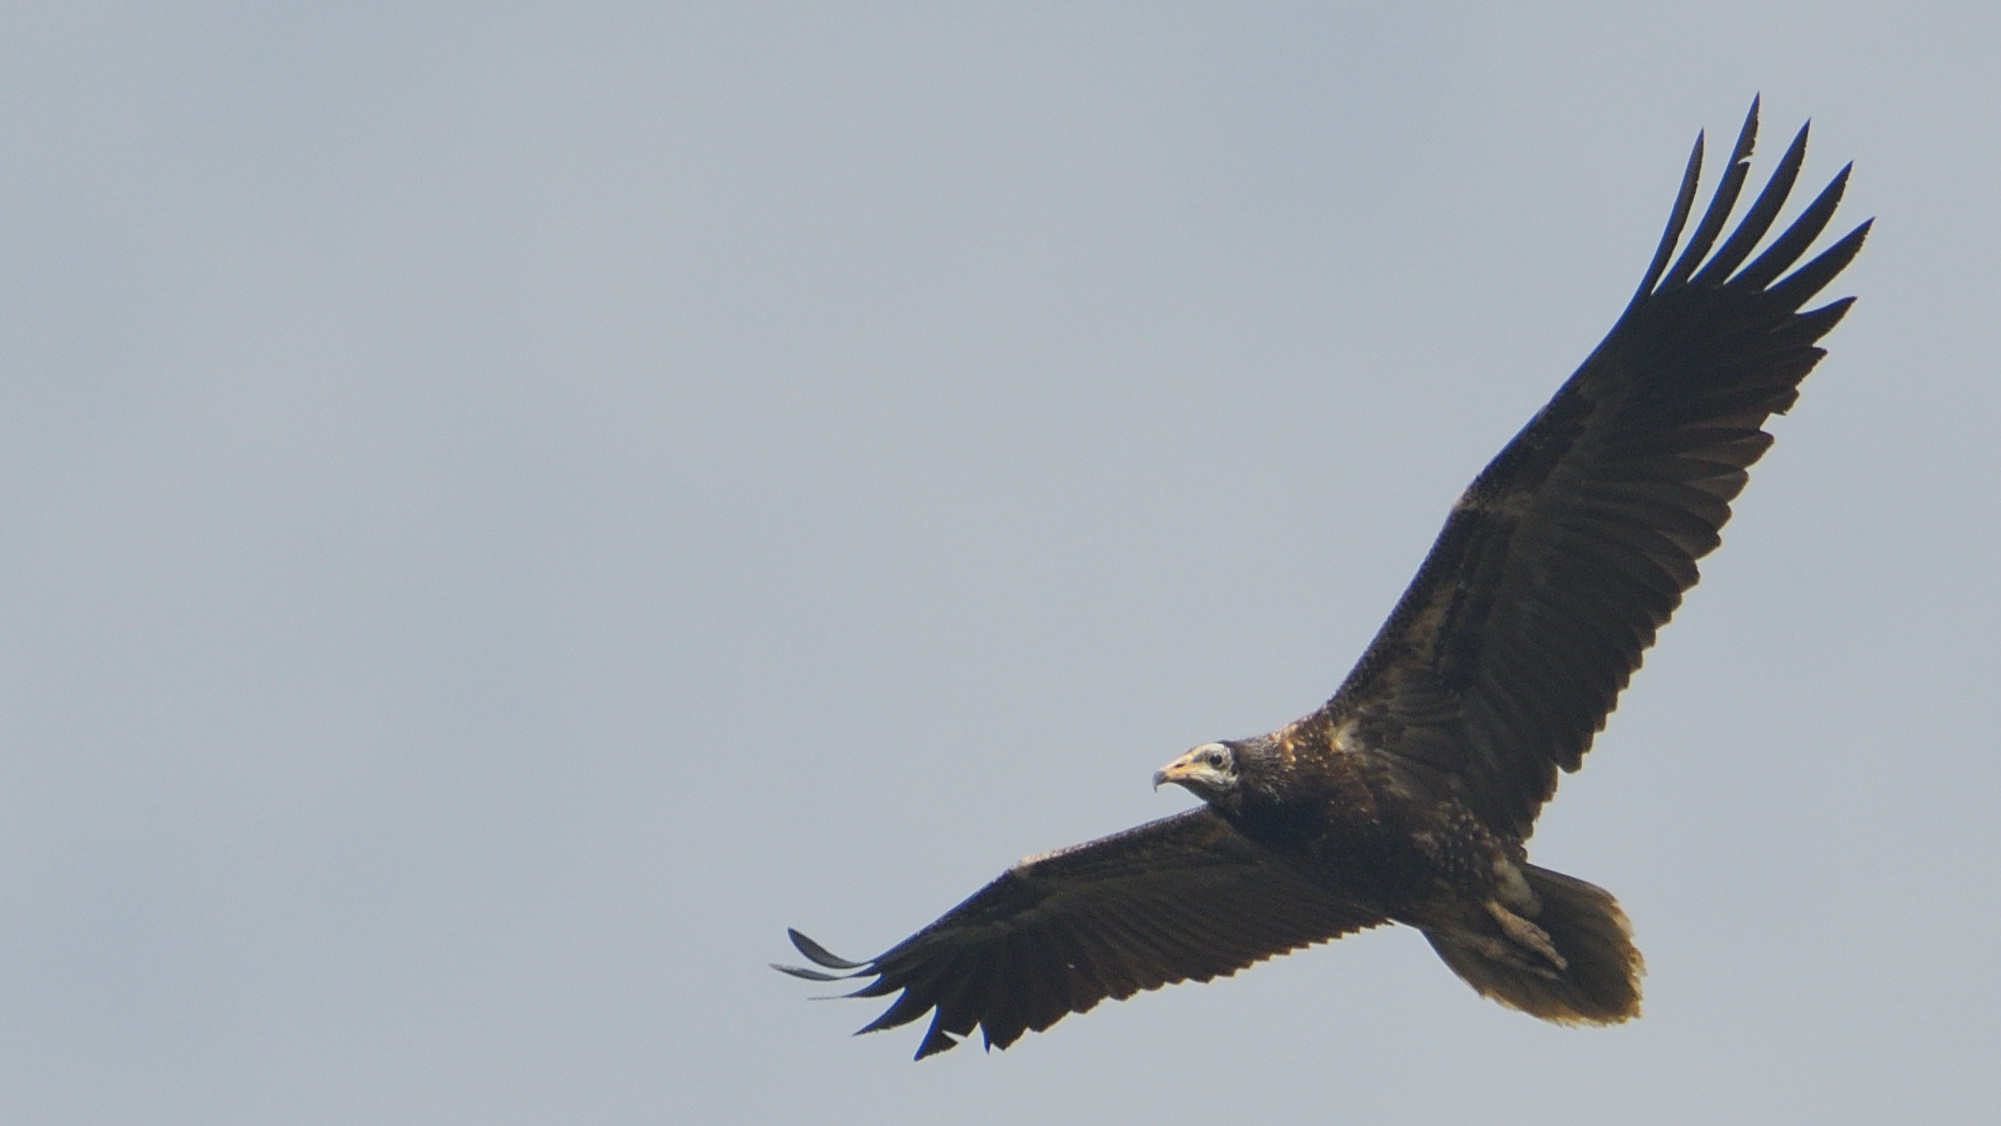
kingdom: Animalia
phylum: Chordata
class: Aves
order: Accipitriformes
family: Accipitridae
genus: Neophron
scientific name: Neophron percnopterus
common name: Egyptian vulture
